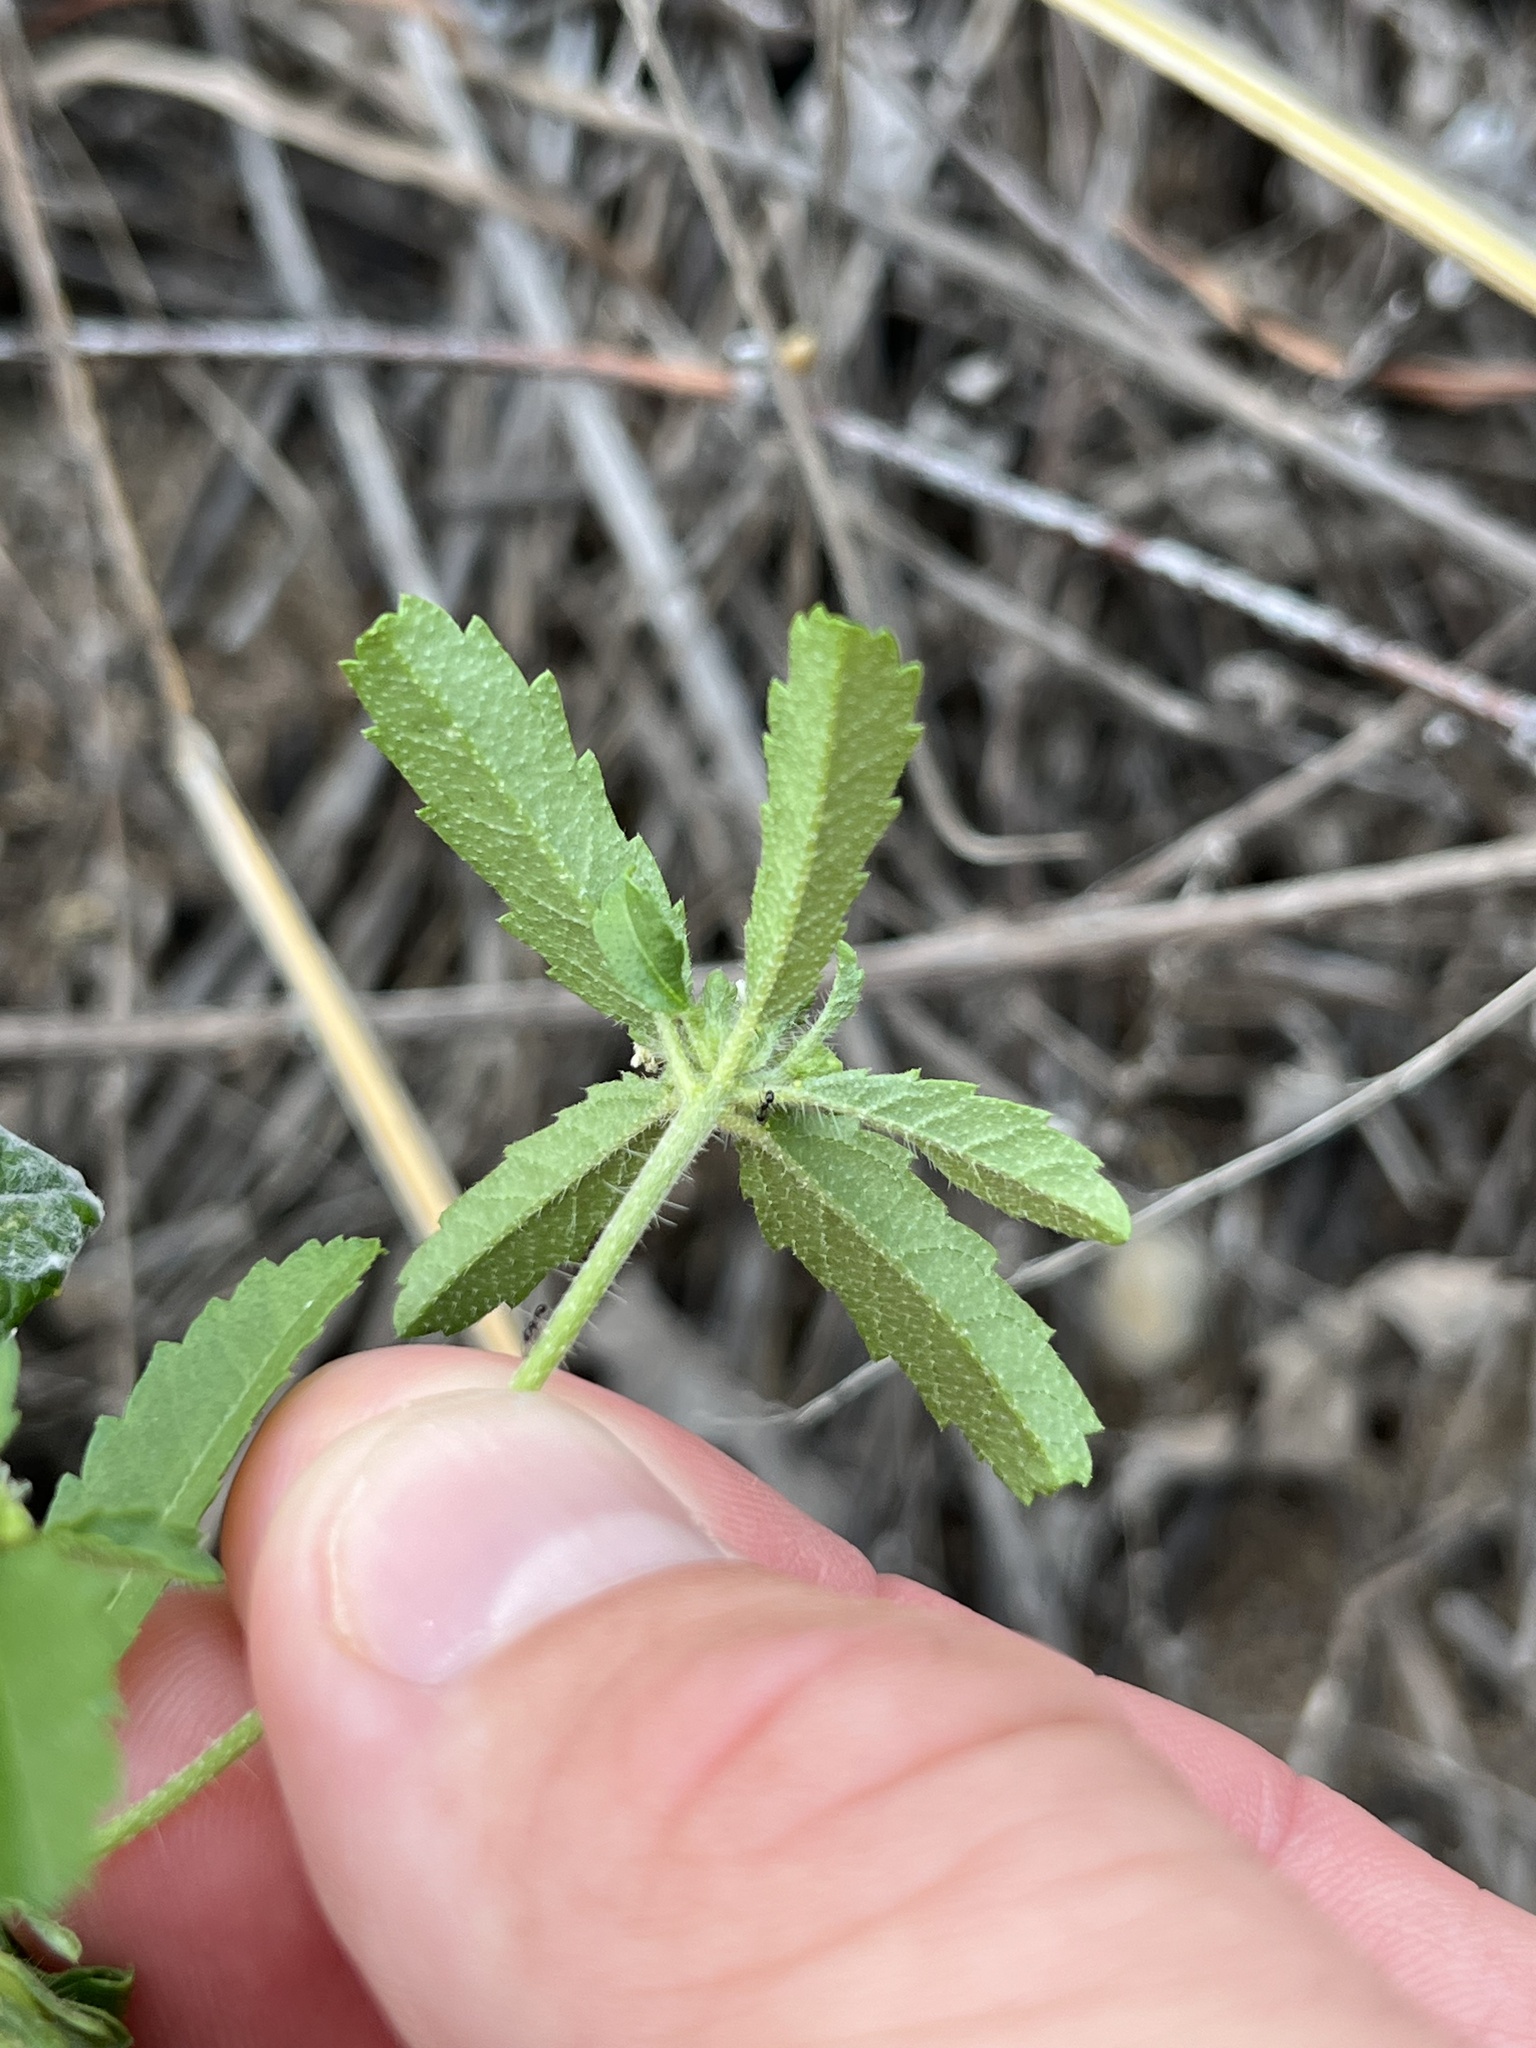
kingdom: Plantae
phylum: Tracheophyta
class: Magnoliopsida
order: Malpighiales
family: Euphorbiaceae
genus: Croton
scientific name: Croton glandulosus
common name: Tropic croton
